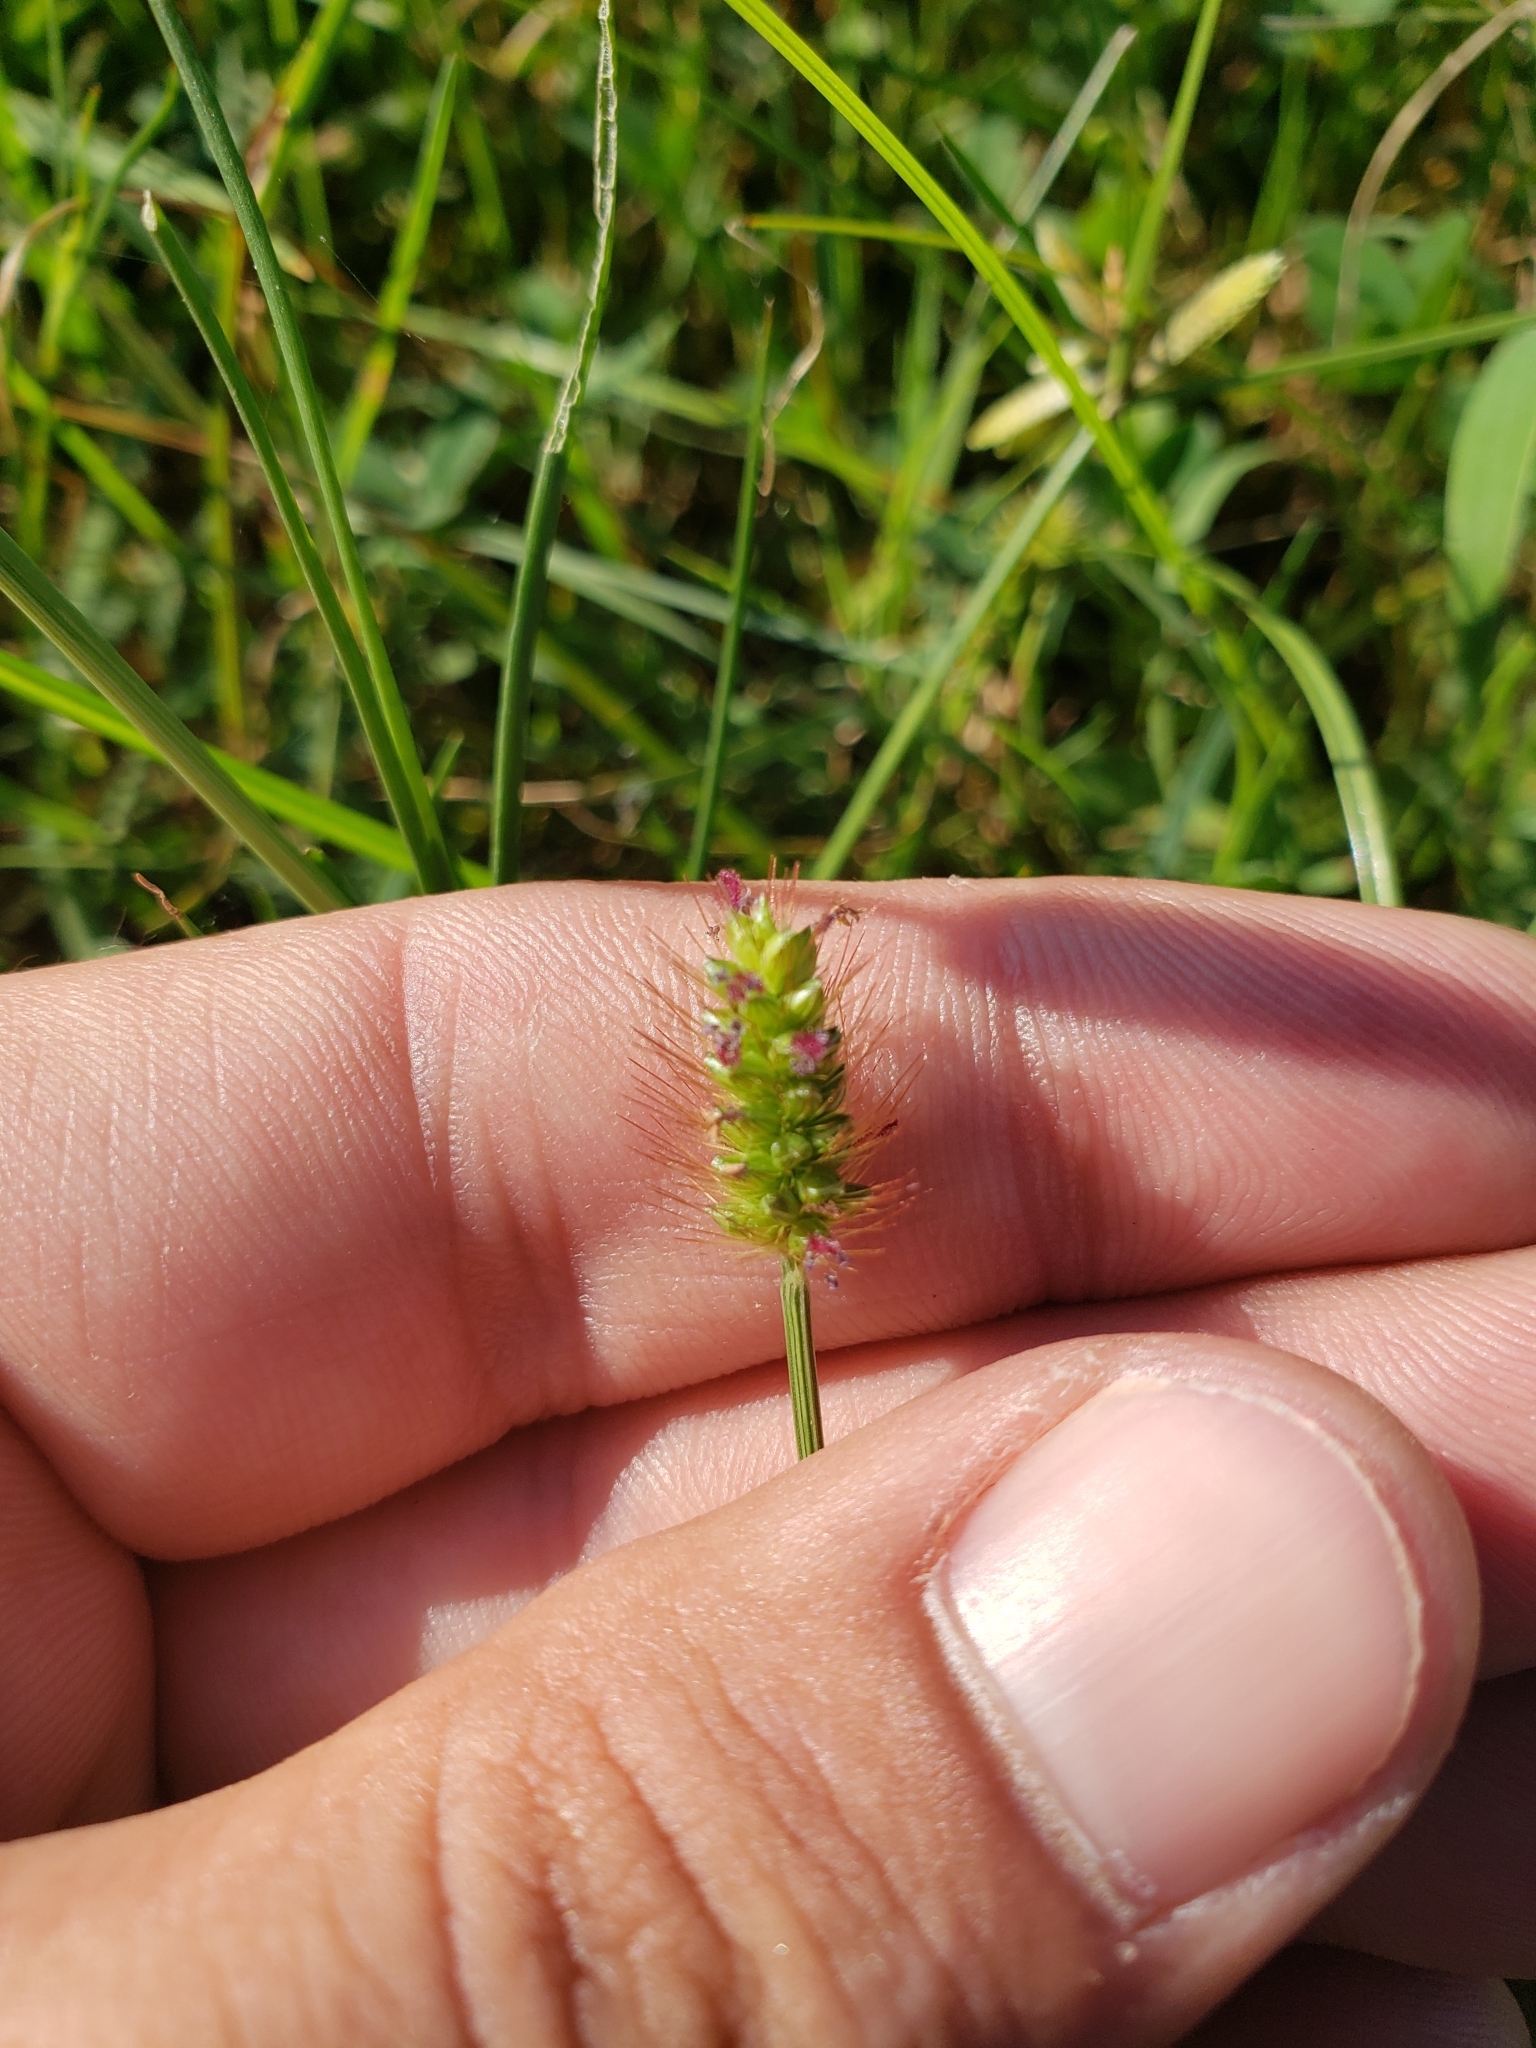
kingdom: Plantae
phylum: Tracheophyta
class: Liliopsida
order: Poales
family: Poaceae
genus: Setaria
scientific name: Setaria parviflora
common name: Knotroot bristle-grass
